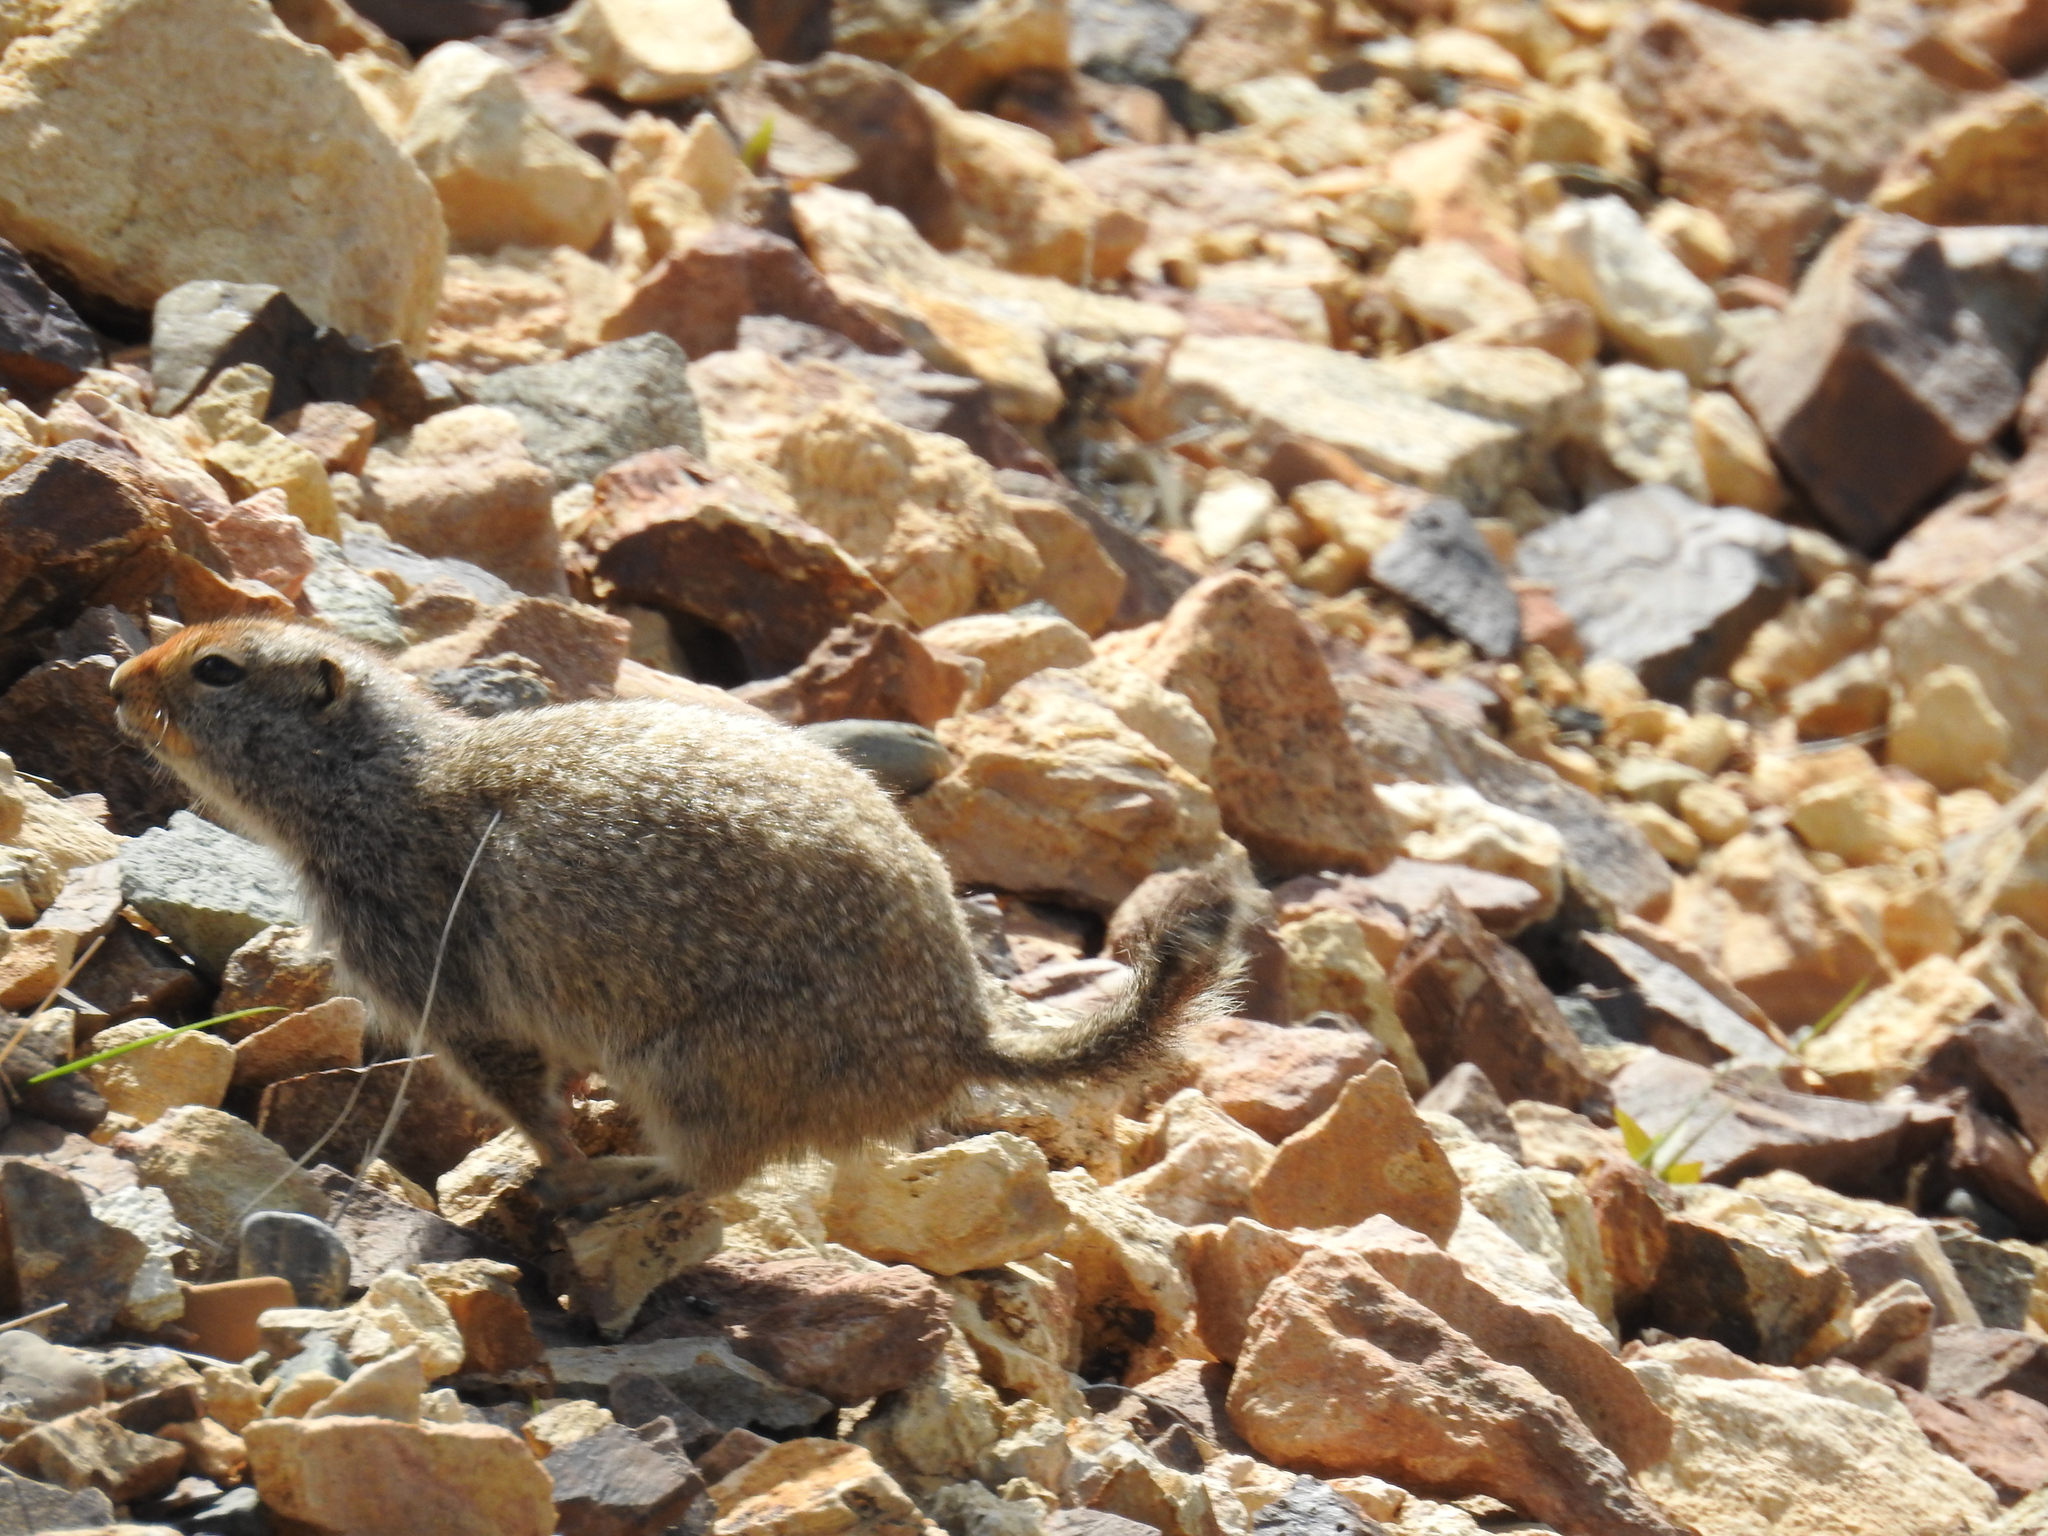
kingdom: Animalia
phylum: Chordata
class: Mammalia
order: Rodentia
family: Sciuridae
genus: Urocitellus
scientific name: Urocitellus parryii
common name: Arctic ground squirrel
